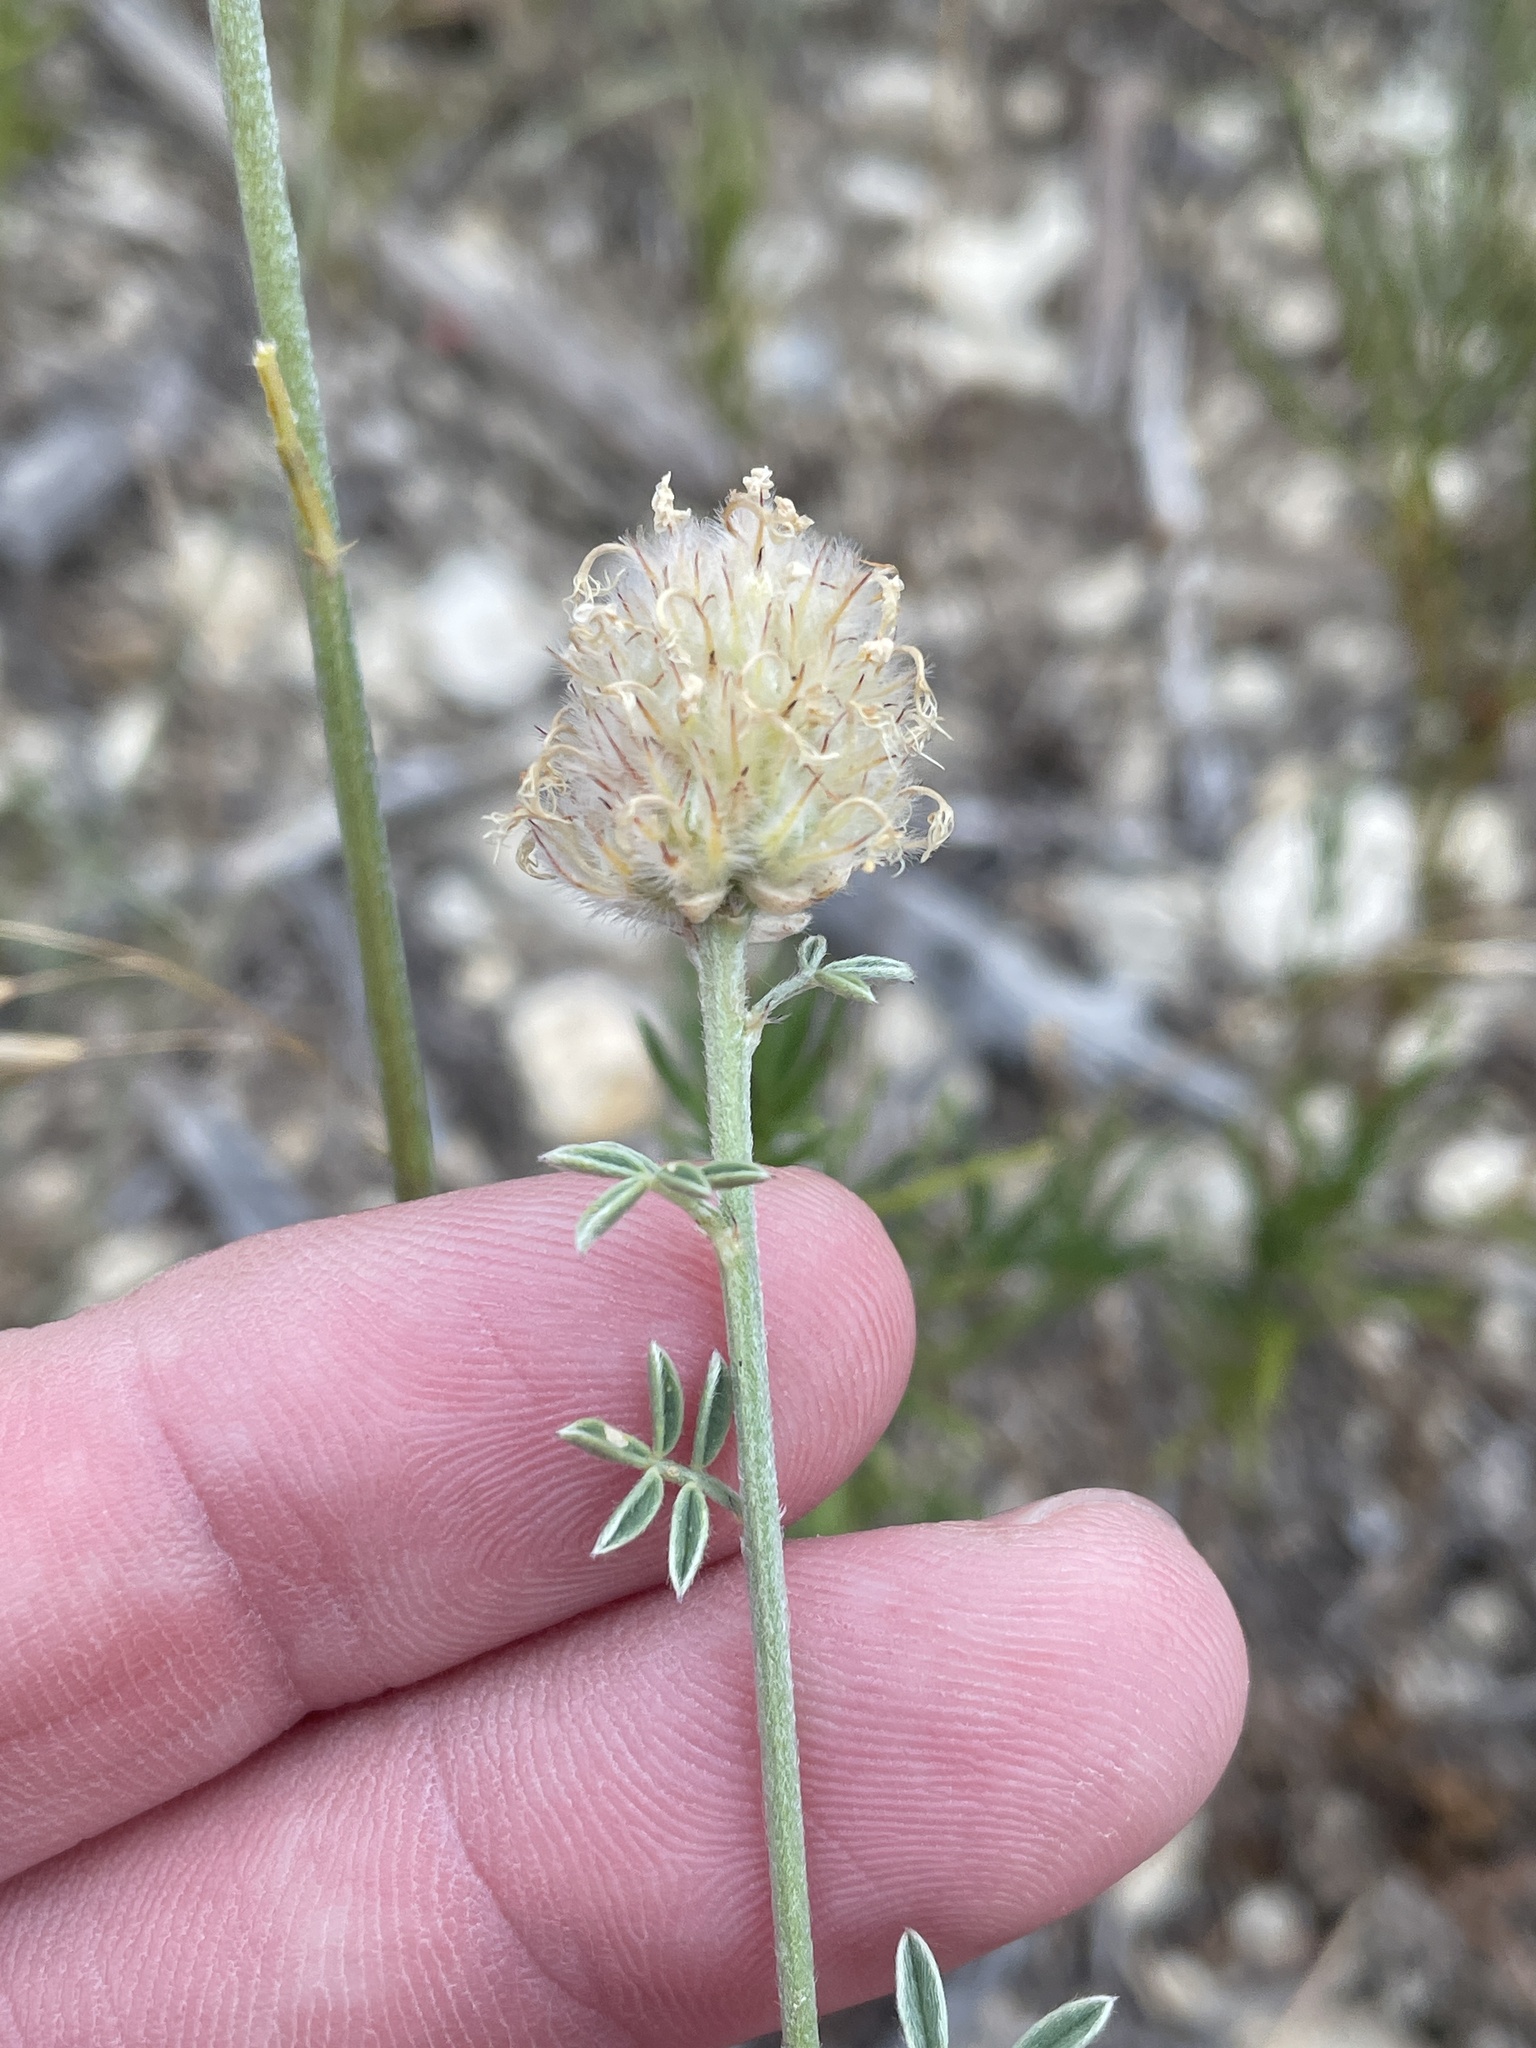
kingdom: Plantae
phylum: Tracheophyta
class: Magnoliopsida
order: Fabales
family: Fabaceae
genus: Dalea
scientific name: Dalea aurea
